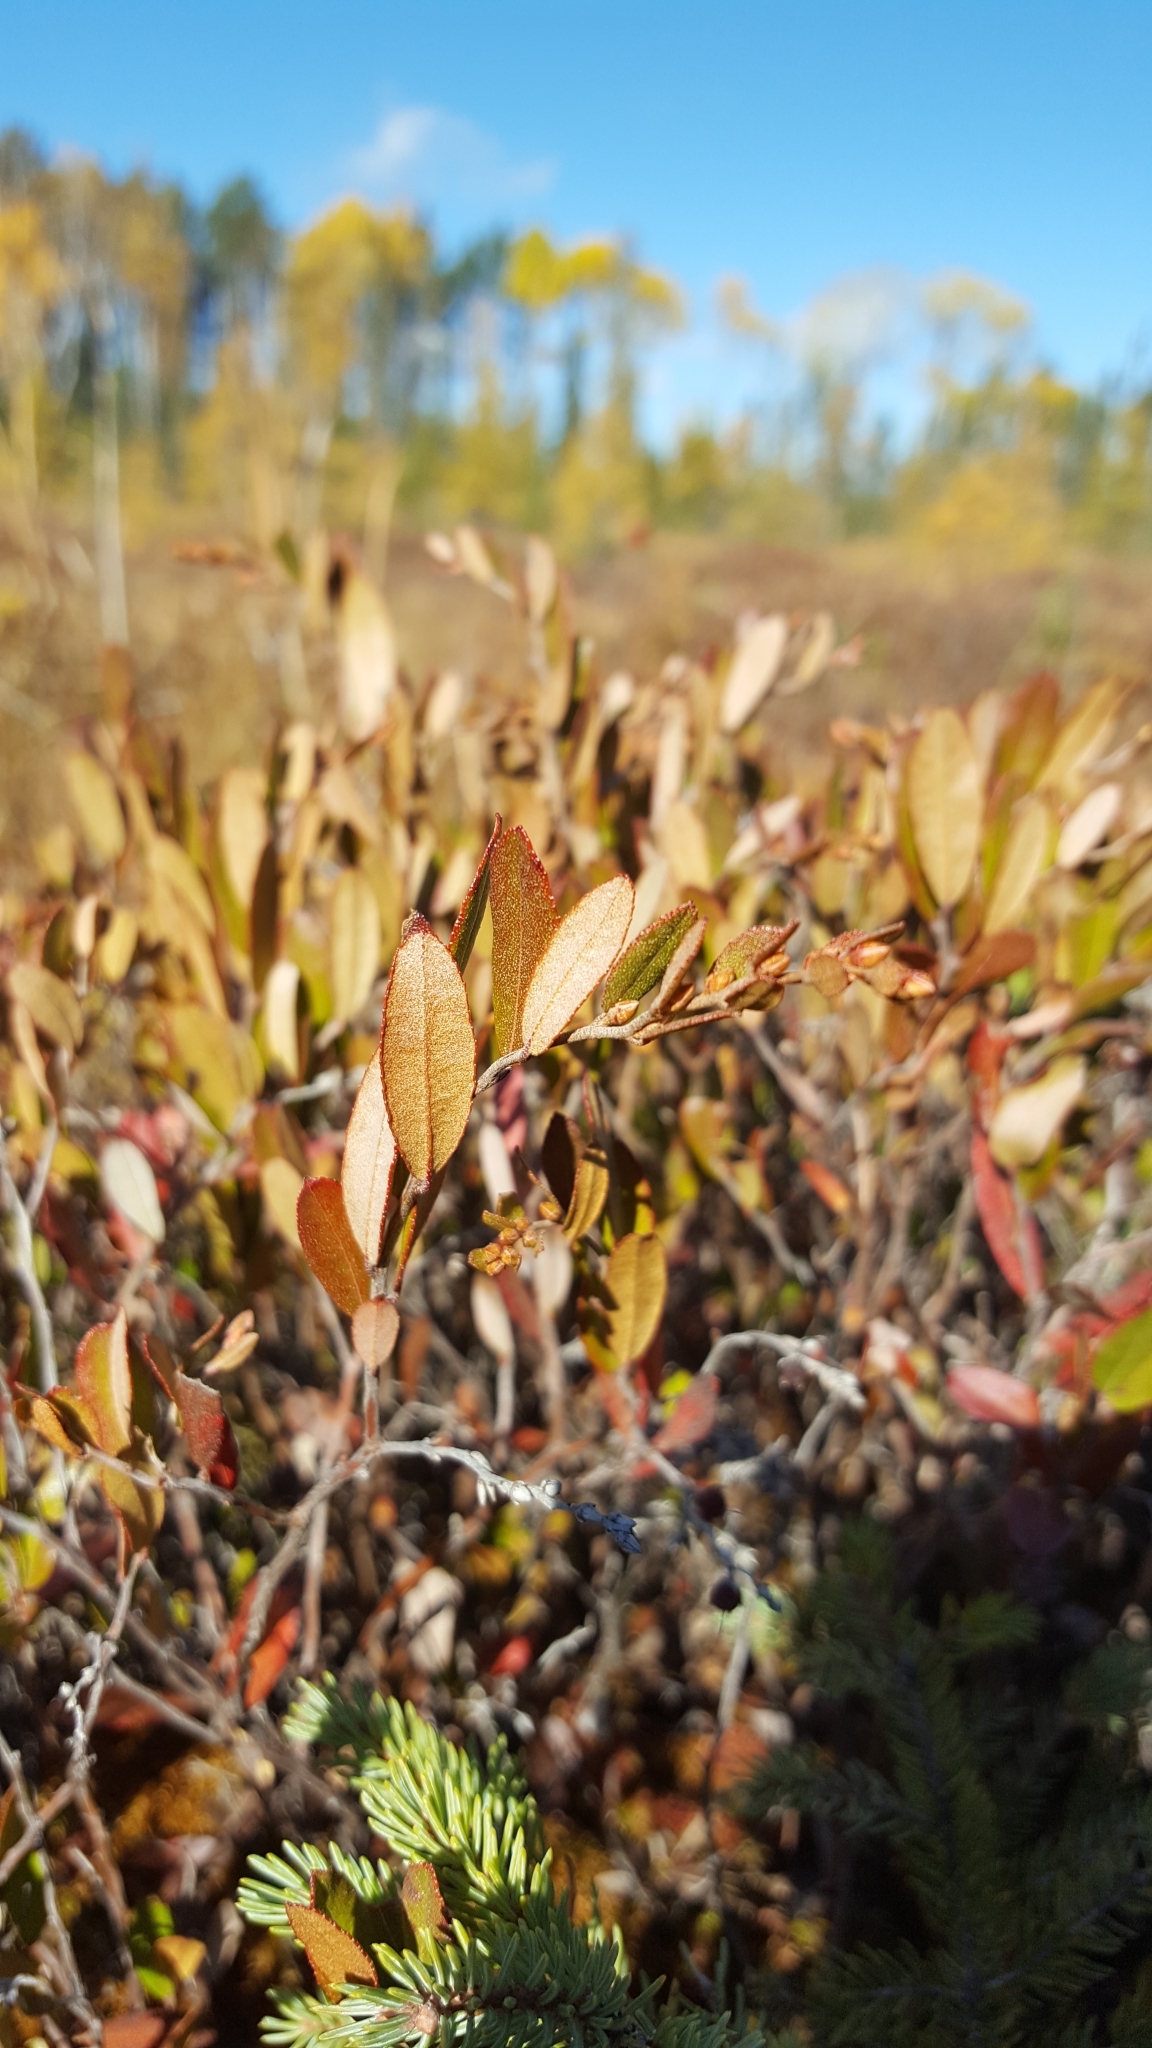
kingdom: Plantae
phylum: Tracheophyta
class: Magnoliopsida
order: Ericales
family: Ericaceae
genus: Chamaedaphne
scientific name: Chamaedaphne calyculata
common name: Leatherleaf
